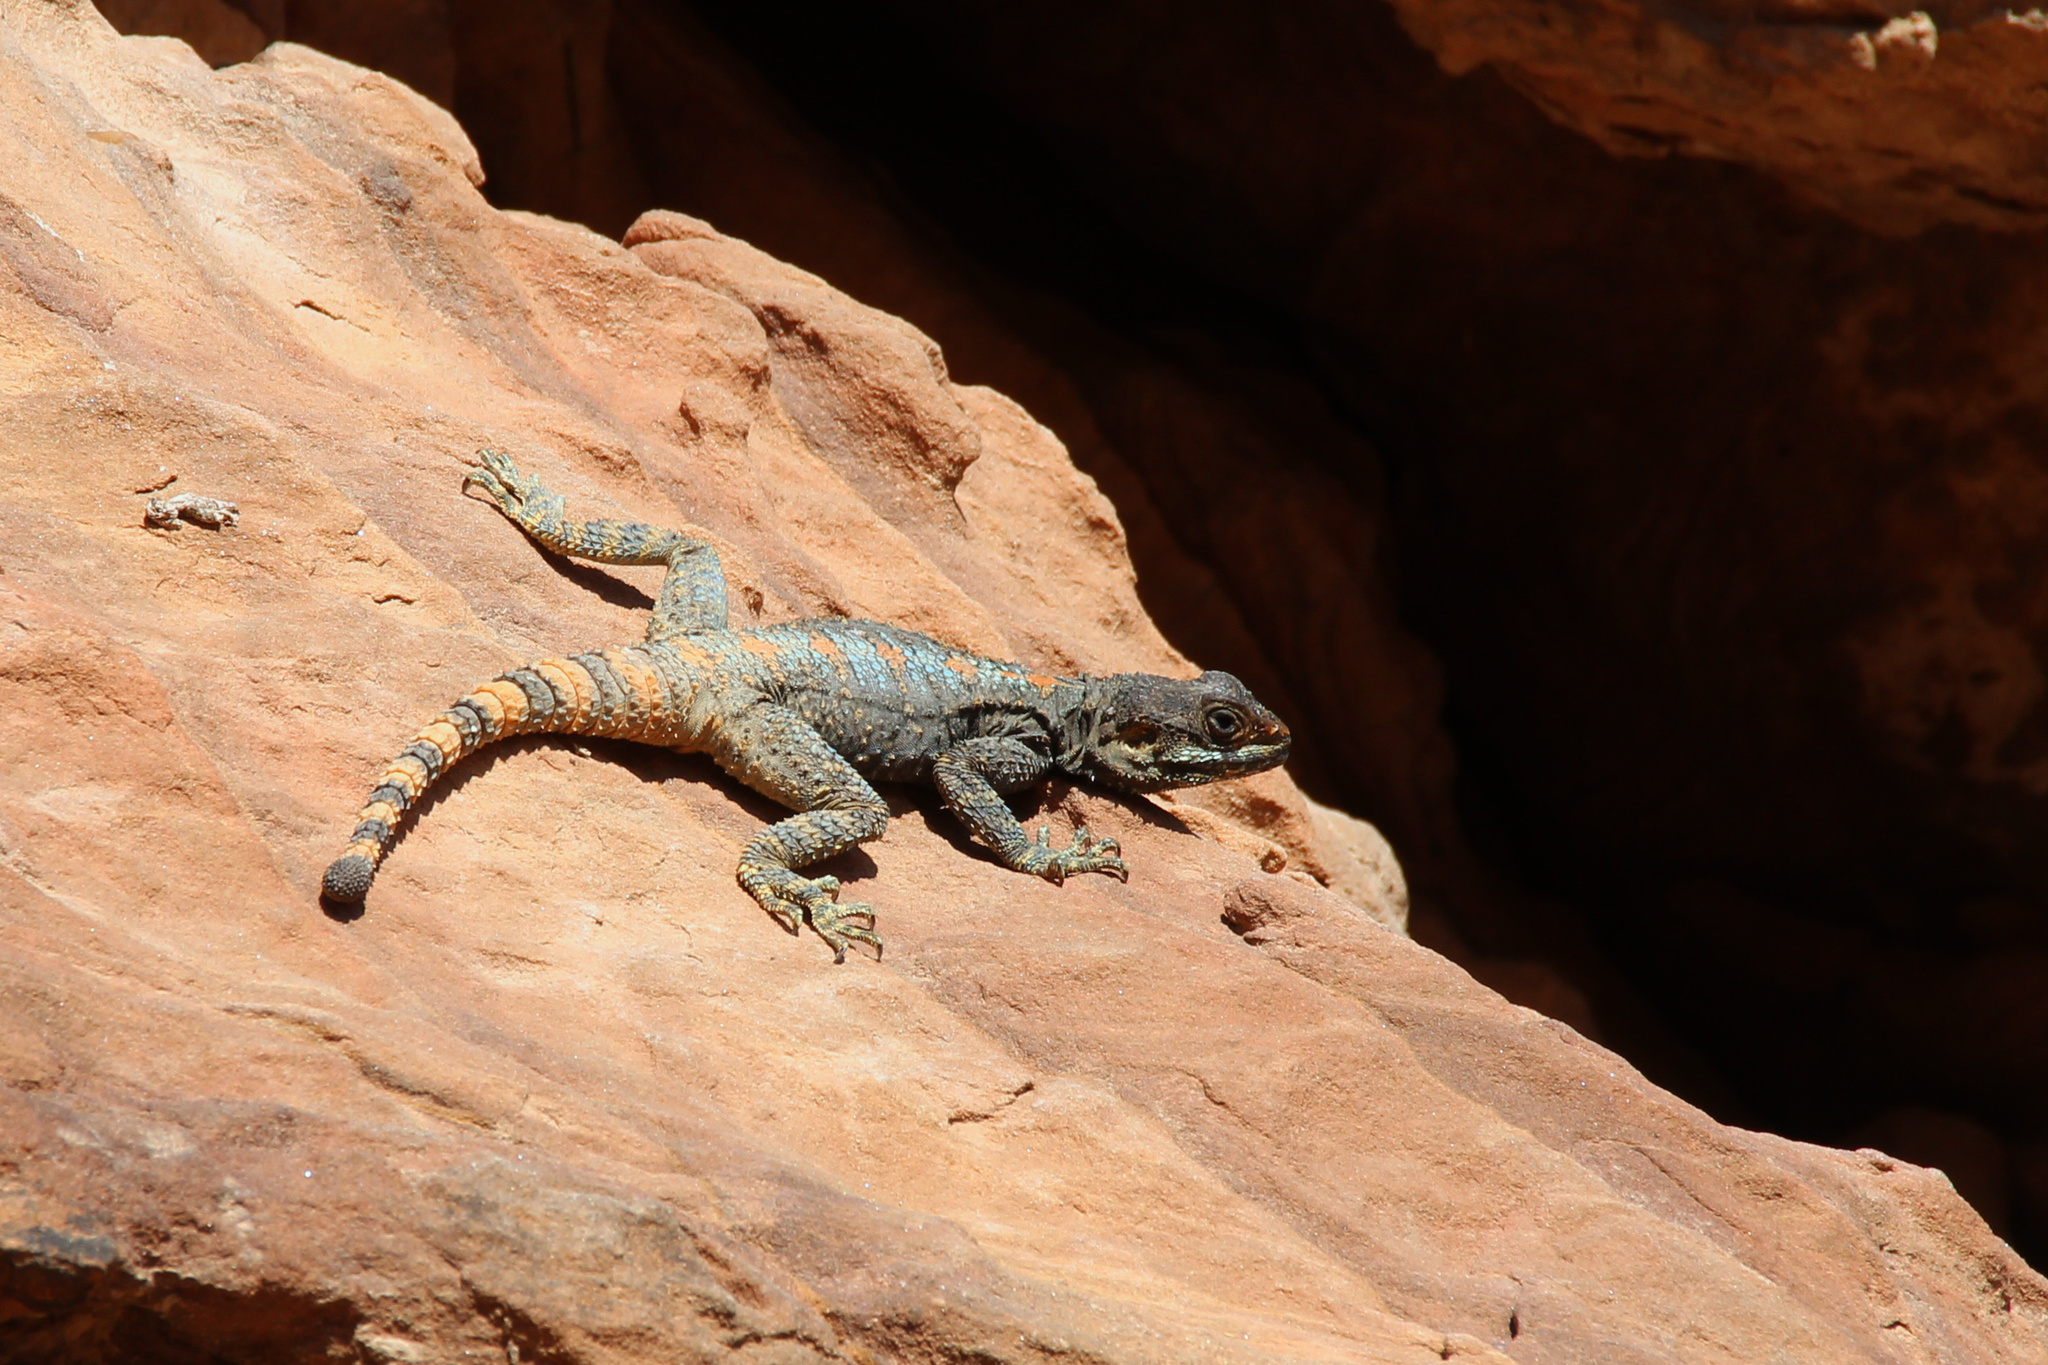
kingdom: Animalia
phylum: Chordata
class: Squamata
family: Agamidae
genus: Laudakia
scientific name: Laudakia vulgaris
